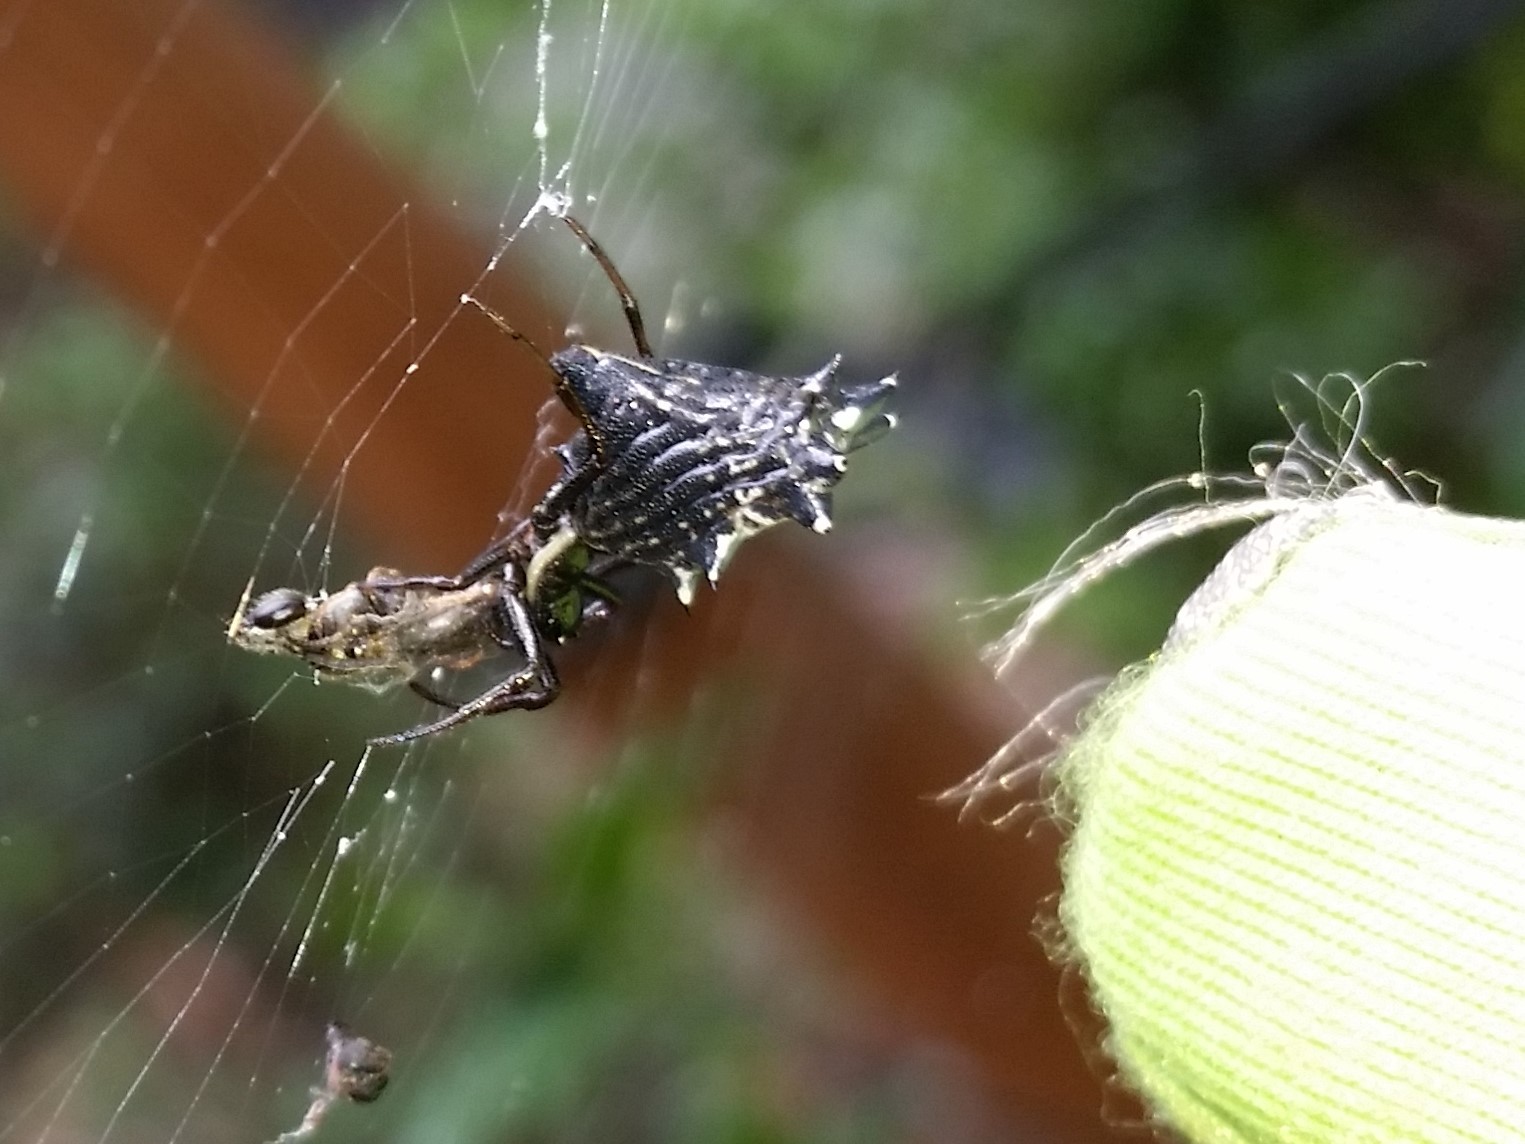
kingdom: Animalia
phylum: Arthropoda
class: Arachnida
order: Araneae
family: Araneidae
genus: Micrathena
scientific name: Micrathena gracilis
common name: Orb weavers
